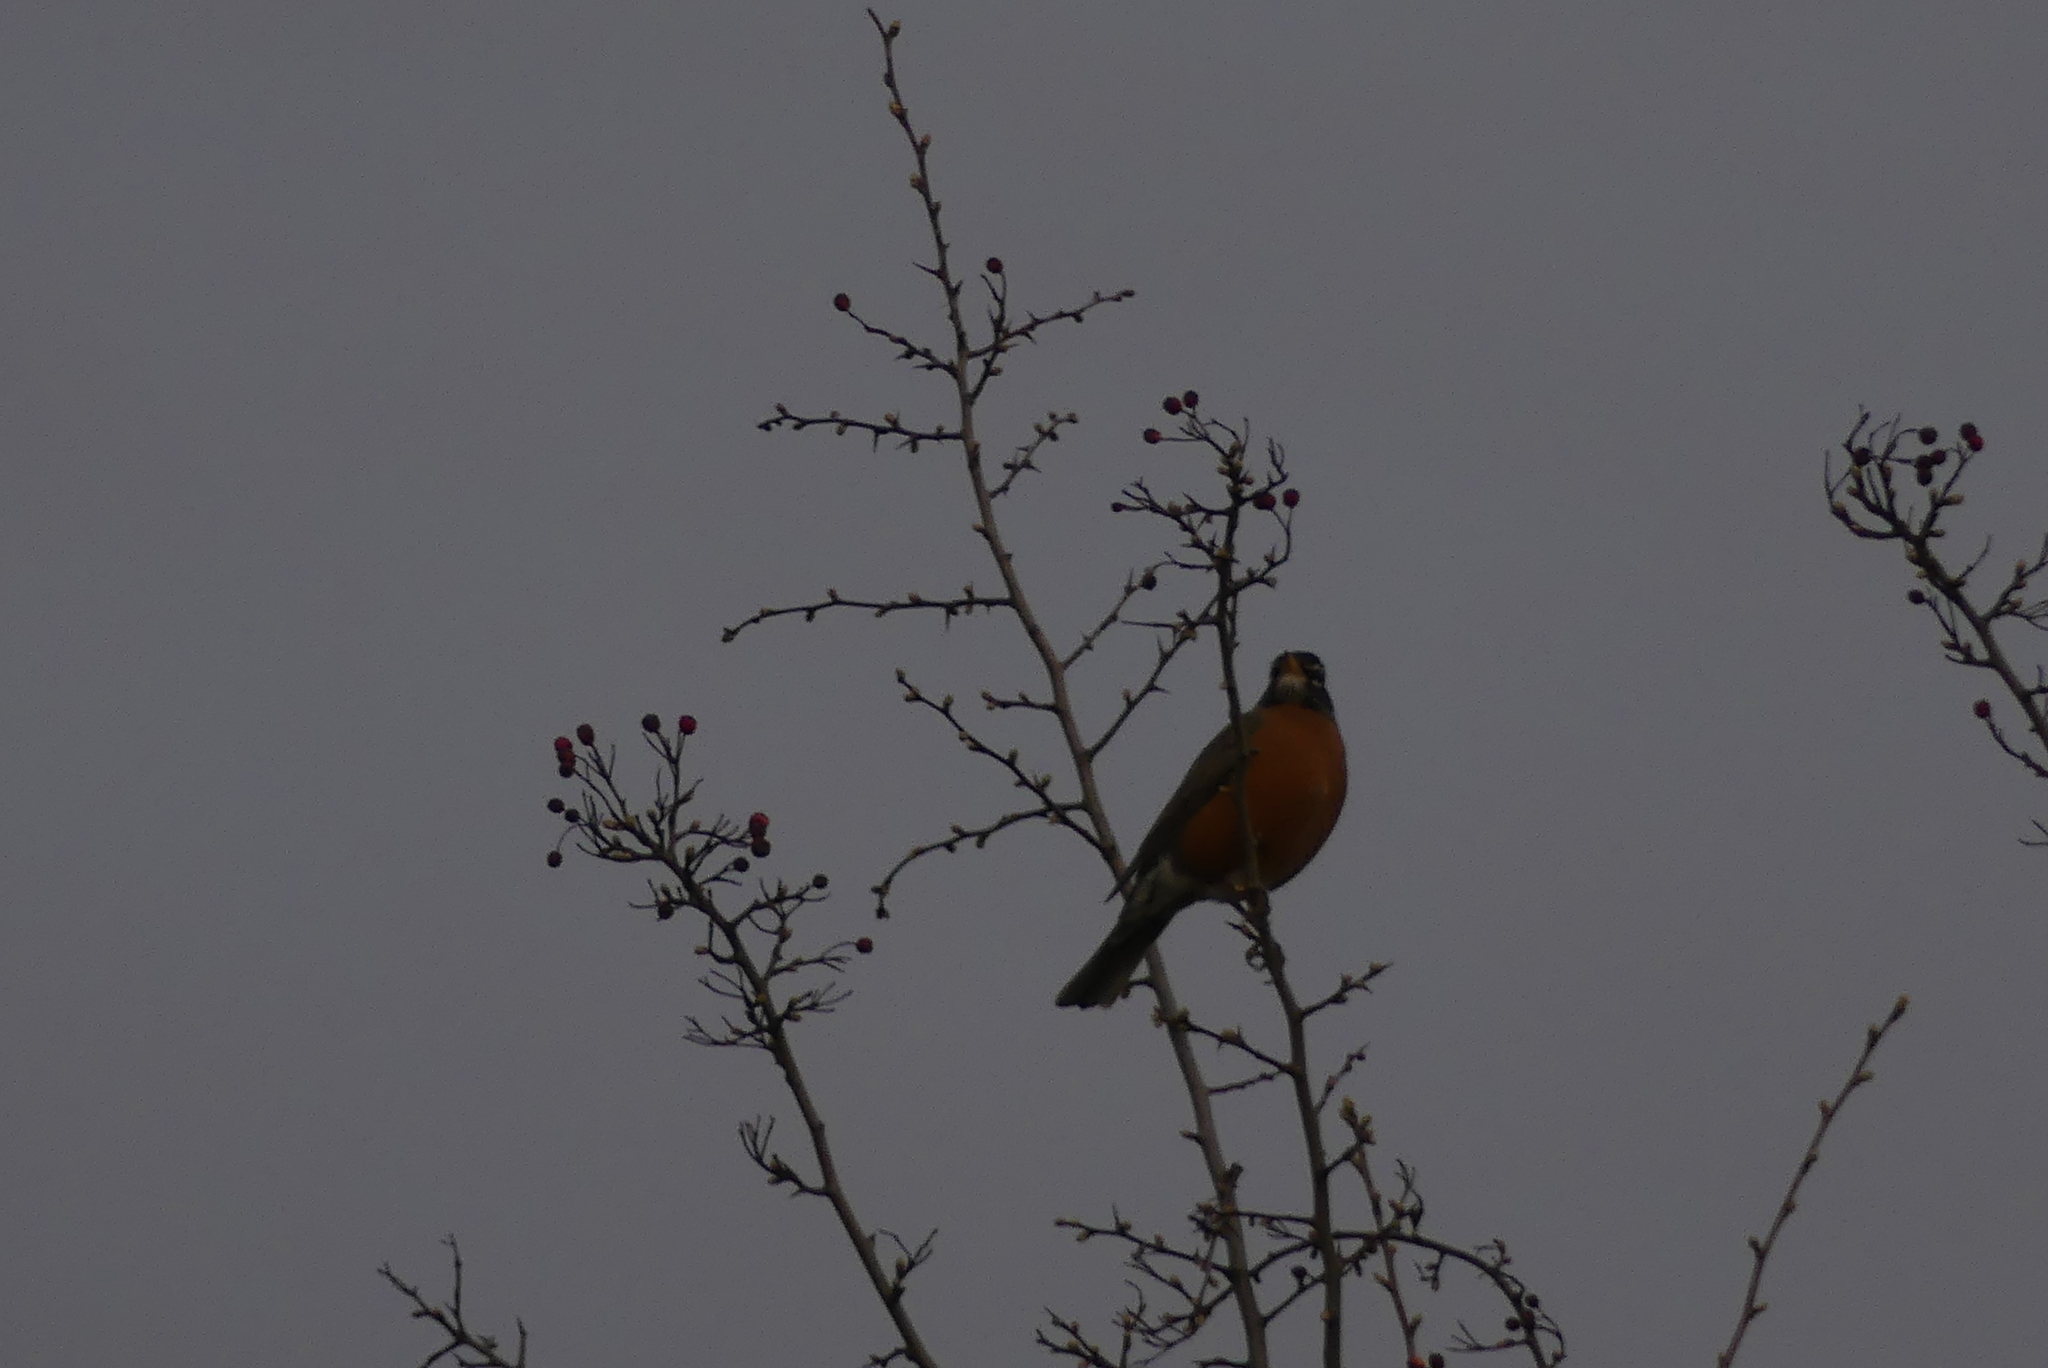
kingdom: Animalia
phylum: Chordata
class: Aves
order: Passeriformes
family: Turdidae
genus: Turdus
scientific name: Turdus migratorius
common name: American robin
